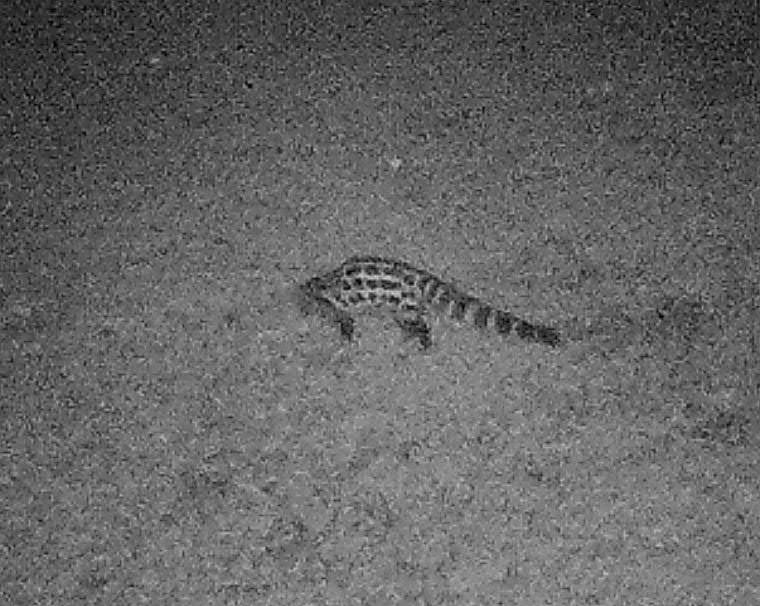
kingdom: Animalia
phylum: Chordata
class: Mammalia
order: Carnivora
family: Viverridae
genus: Genetta
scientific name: Genetta tigrina
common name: Cape genet
